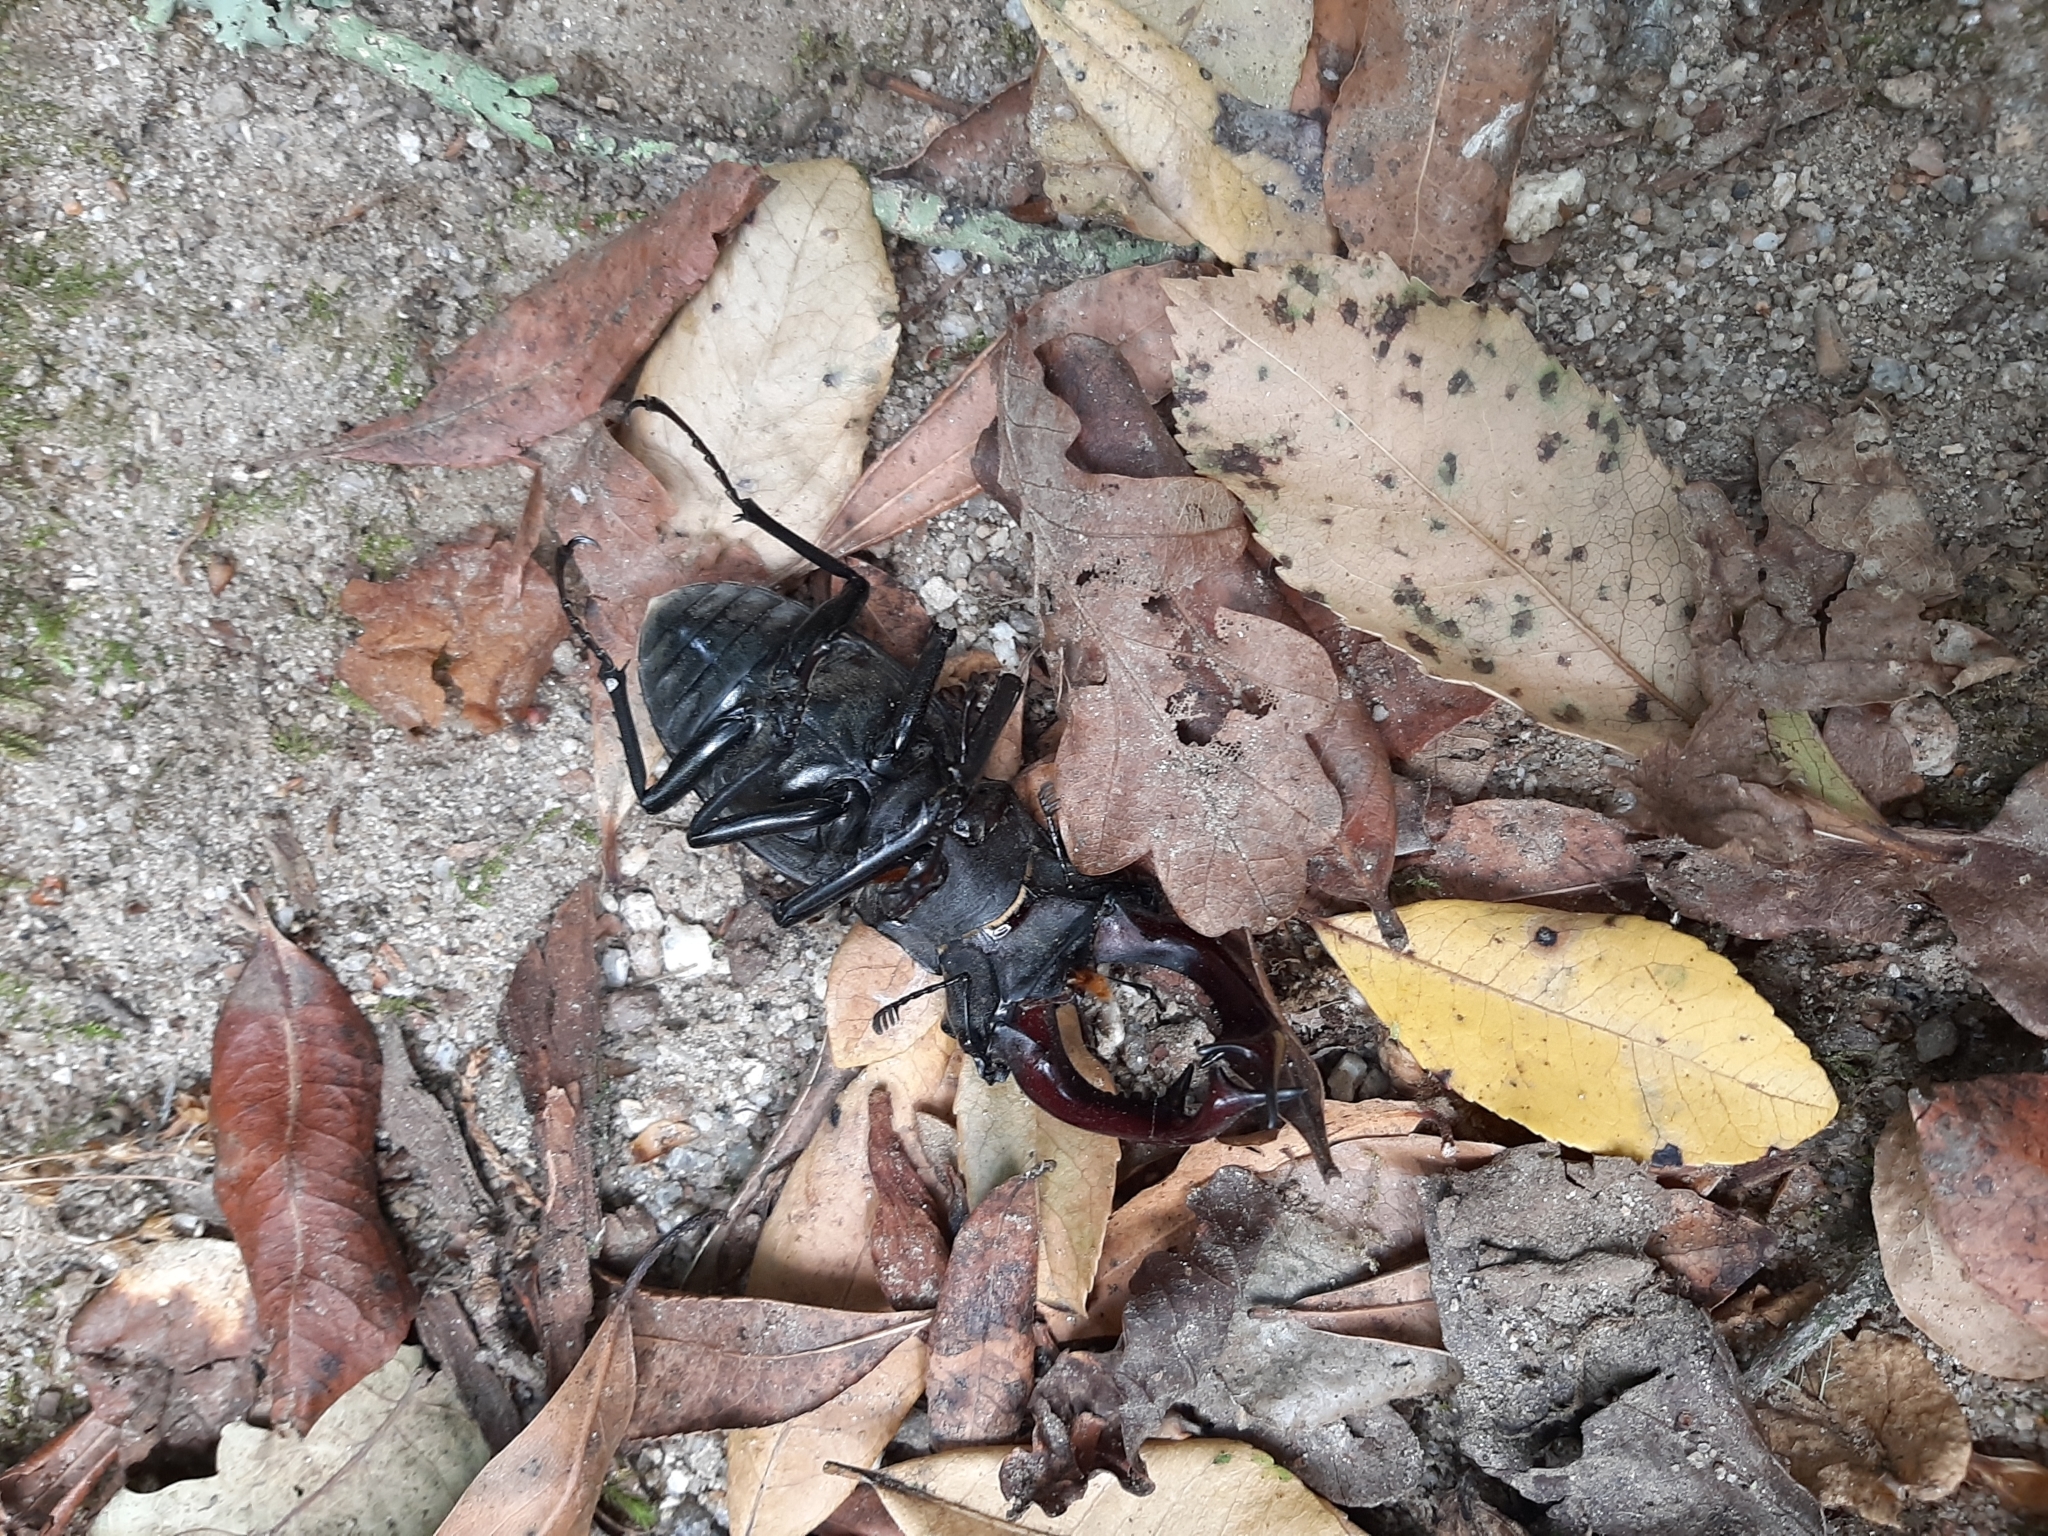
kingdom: Animalia
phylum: Arthropoda
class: Insecta
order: Coleoptera
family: Lucanidae
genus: Lucanus
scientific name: Lucanus cervus
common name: Stag beetle
